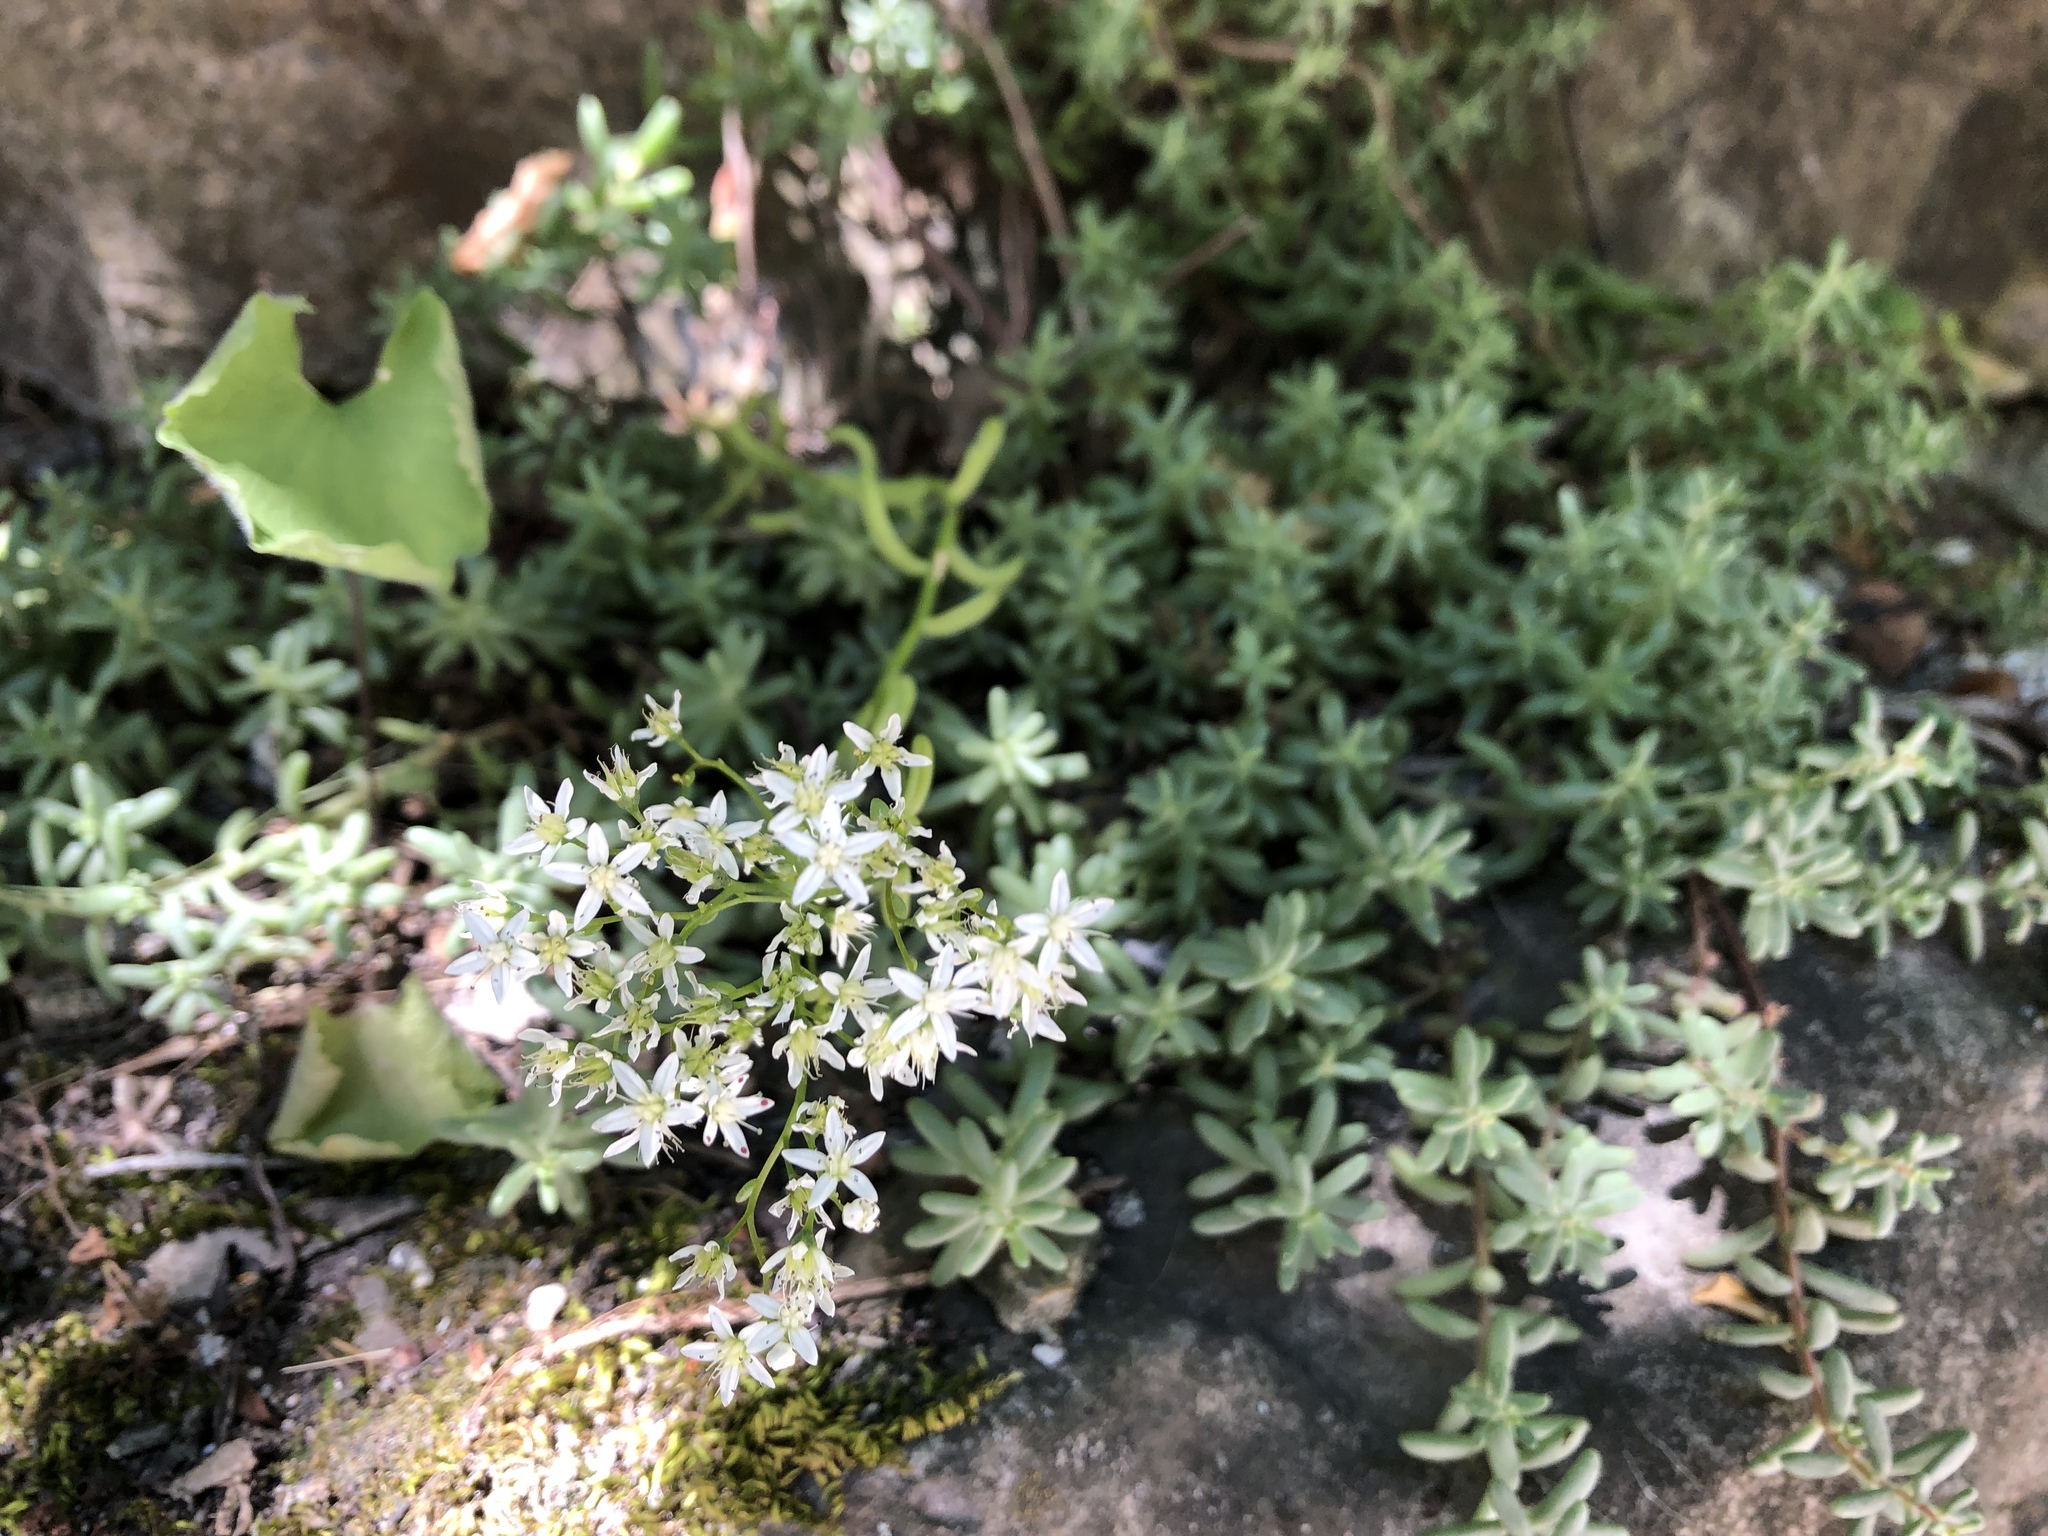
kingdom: Plantae
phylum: Tracheophyta
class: Magnoliopsida
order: Saxifragales
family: Crassulaceae
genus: Sedum
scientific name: Sedum album
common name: White stonecrop
